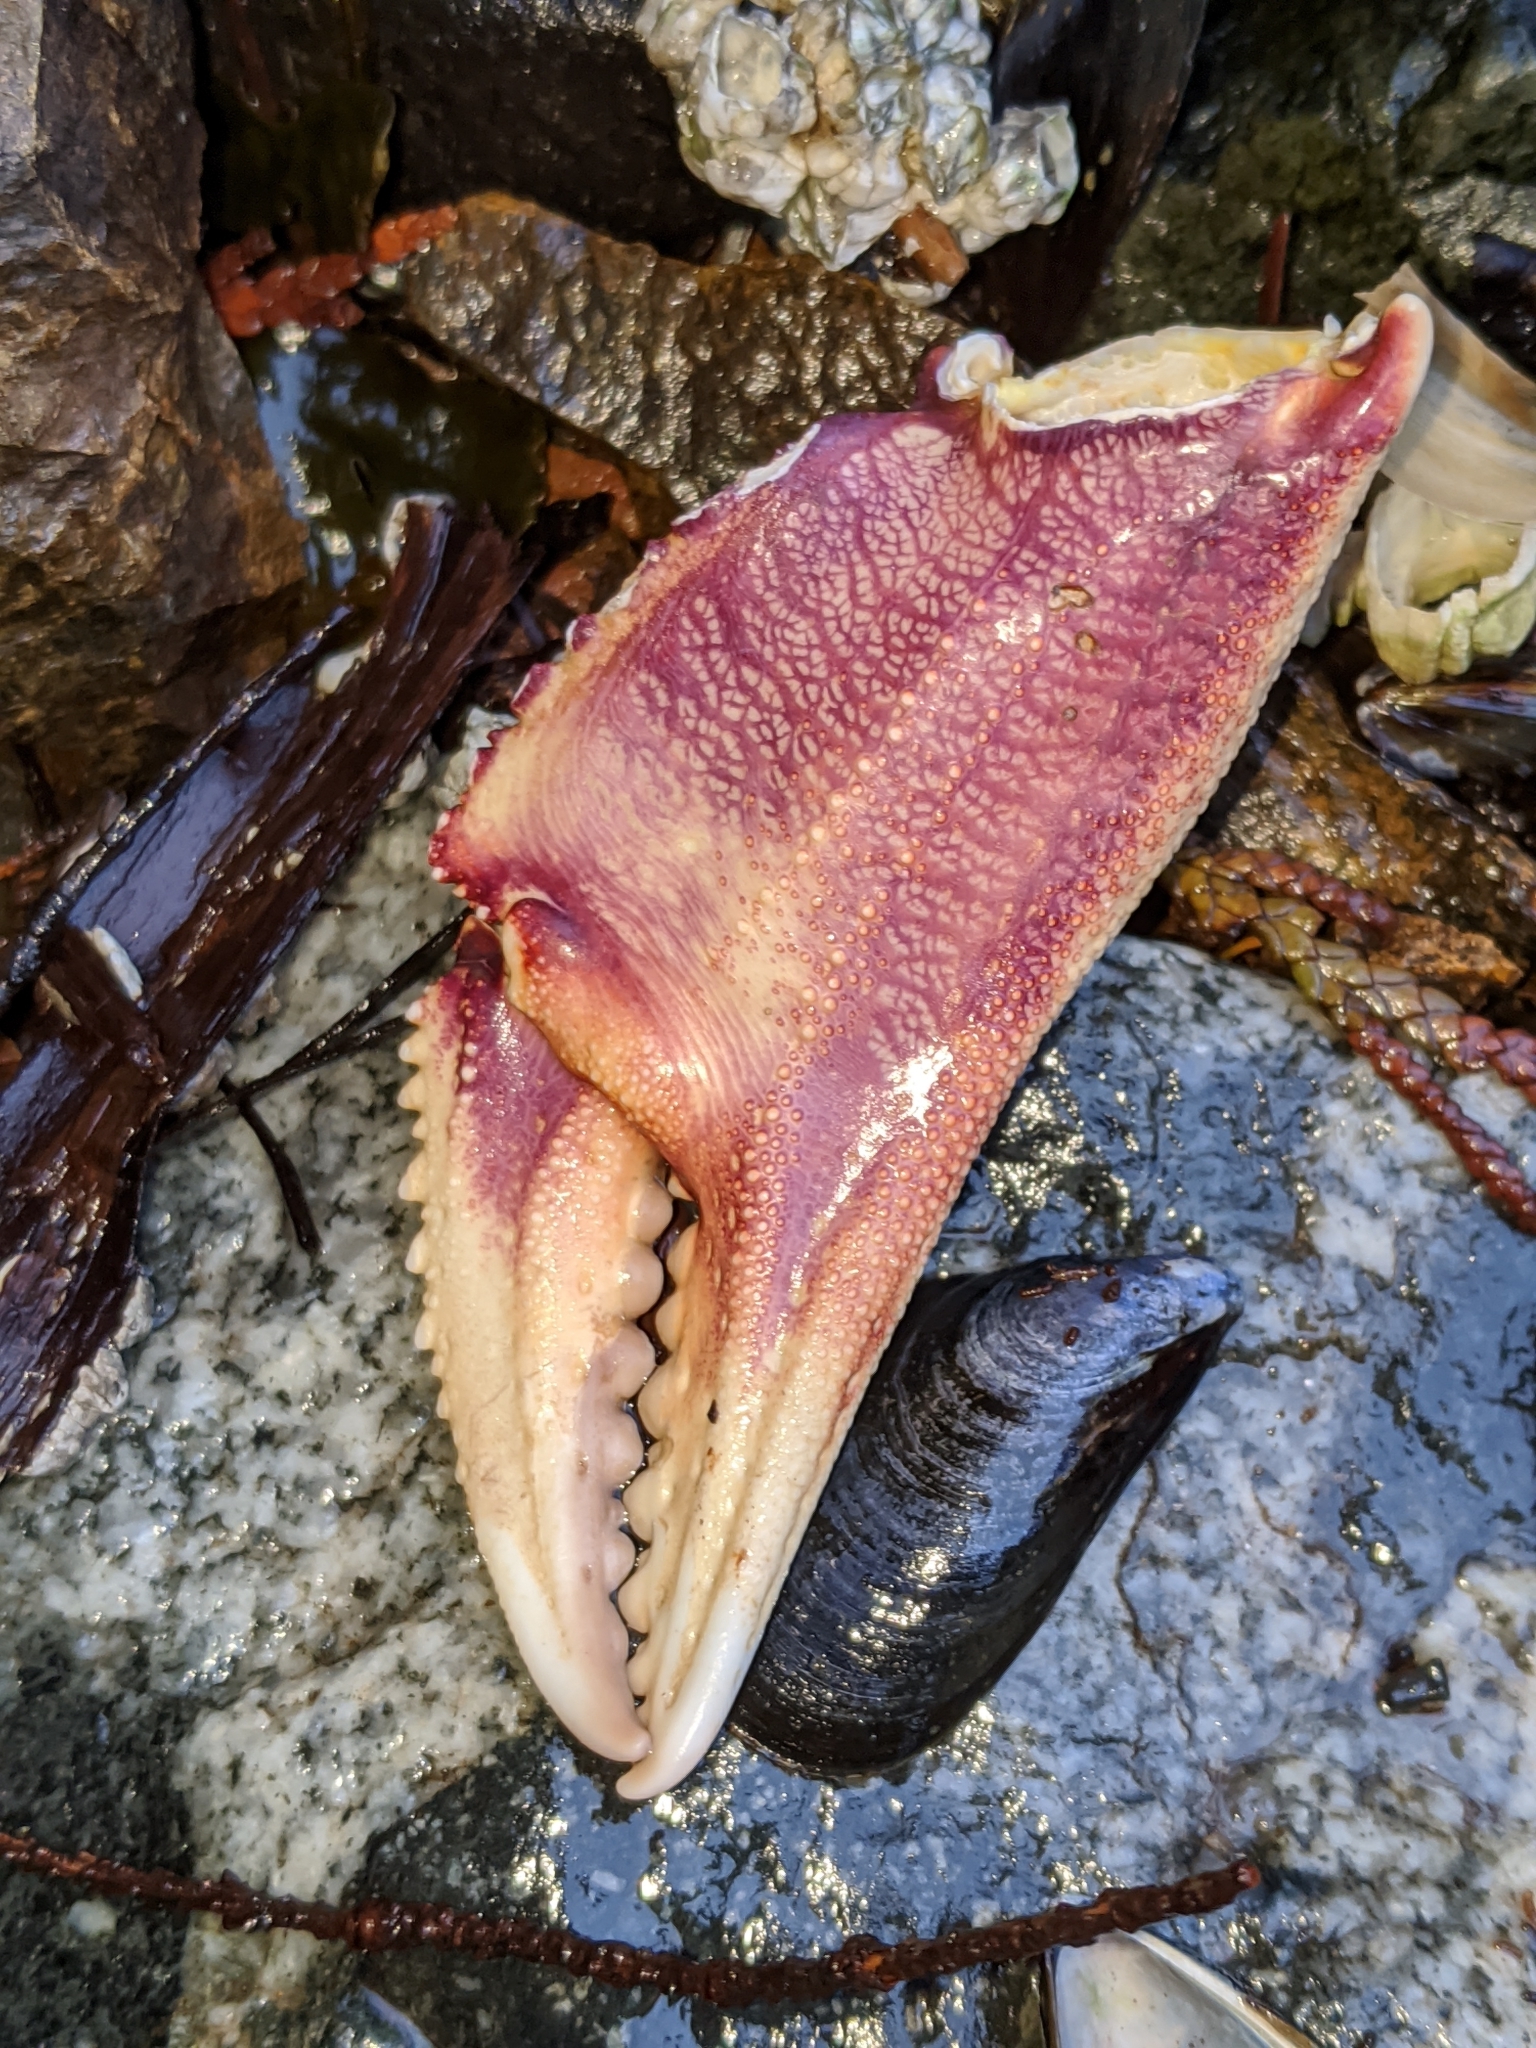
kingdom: Animalia
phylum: Arthropoda
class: Malacostraca
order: Decapoda
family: Cancridae
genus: Metacarcinus
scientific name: Metacarcinus magister
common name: Californian crab
